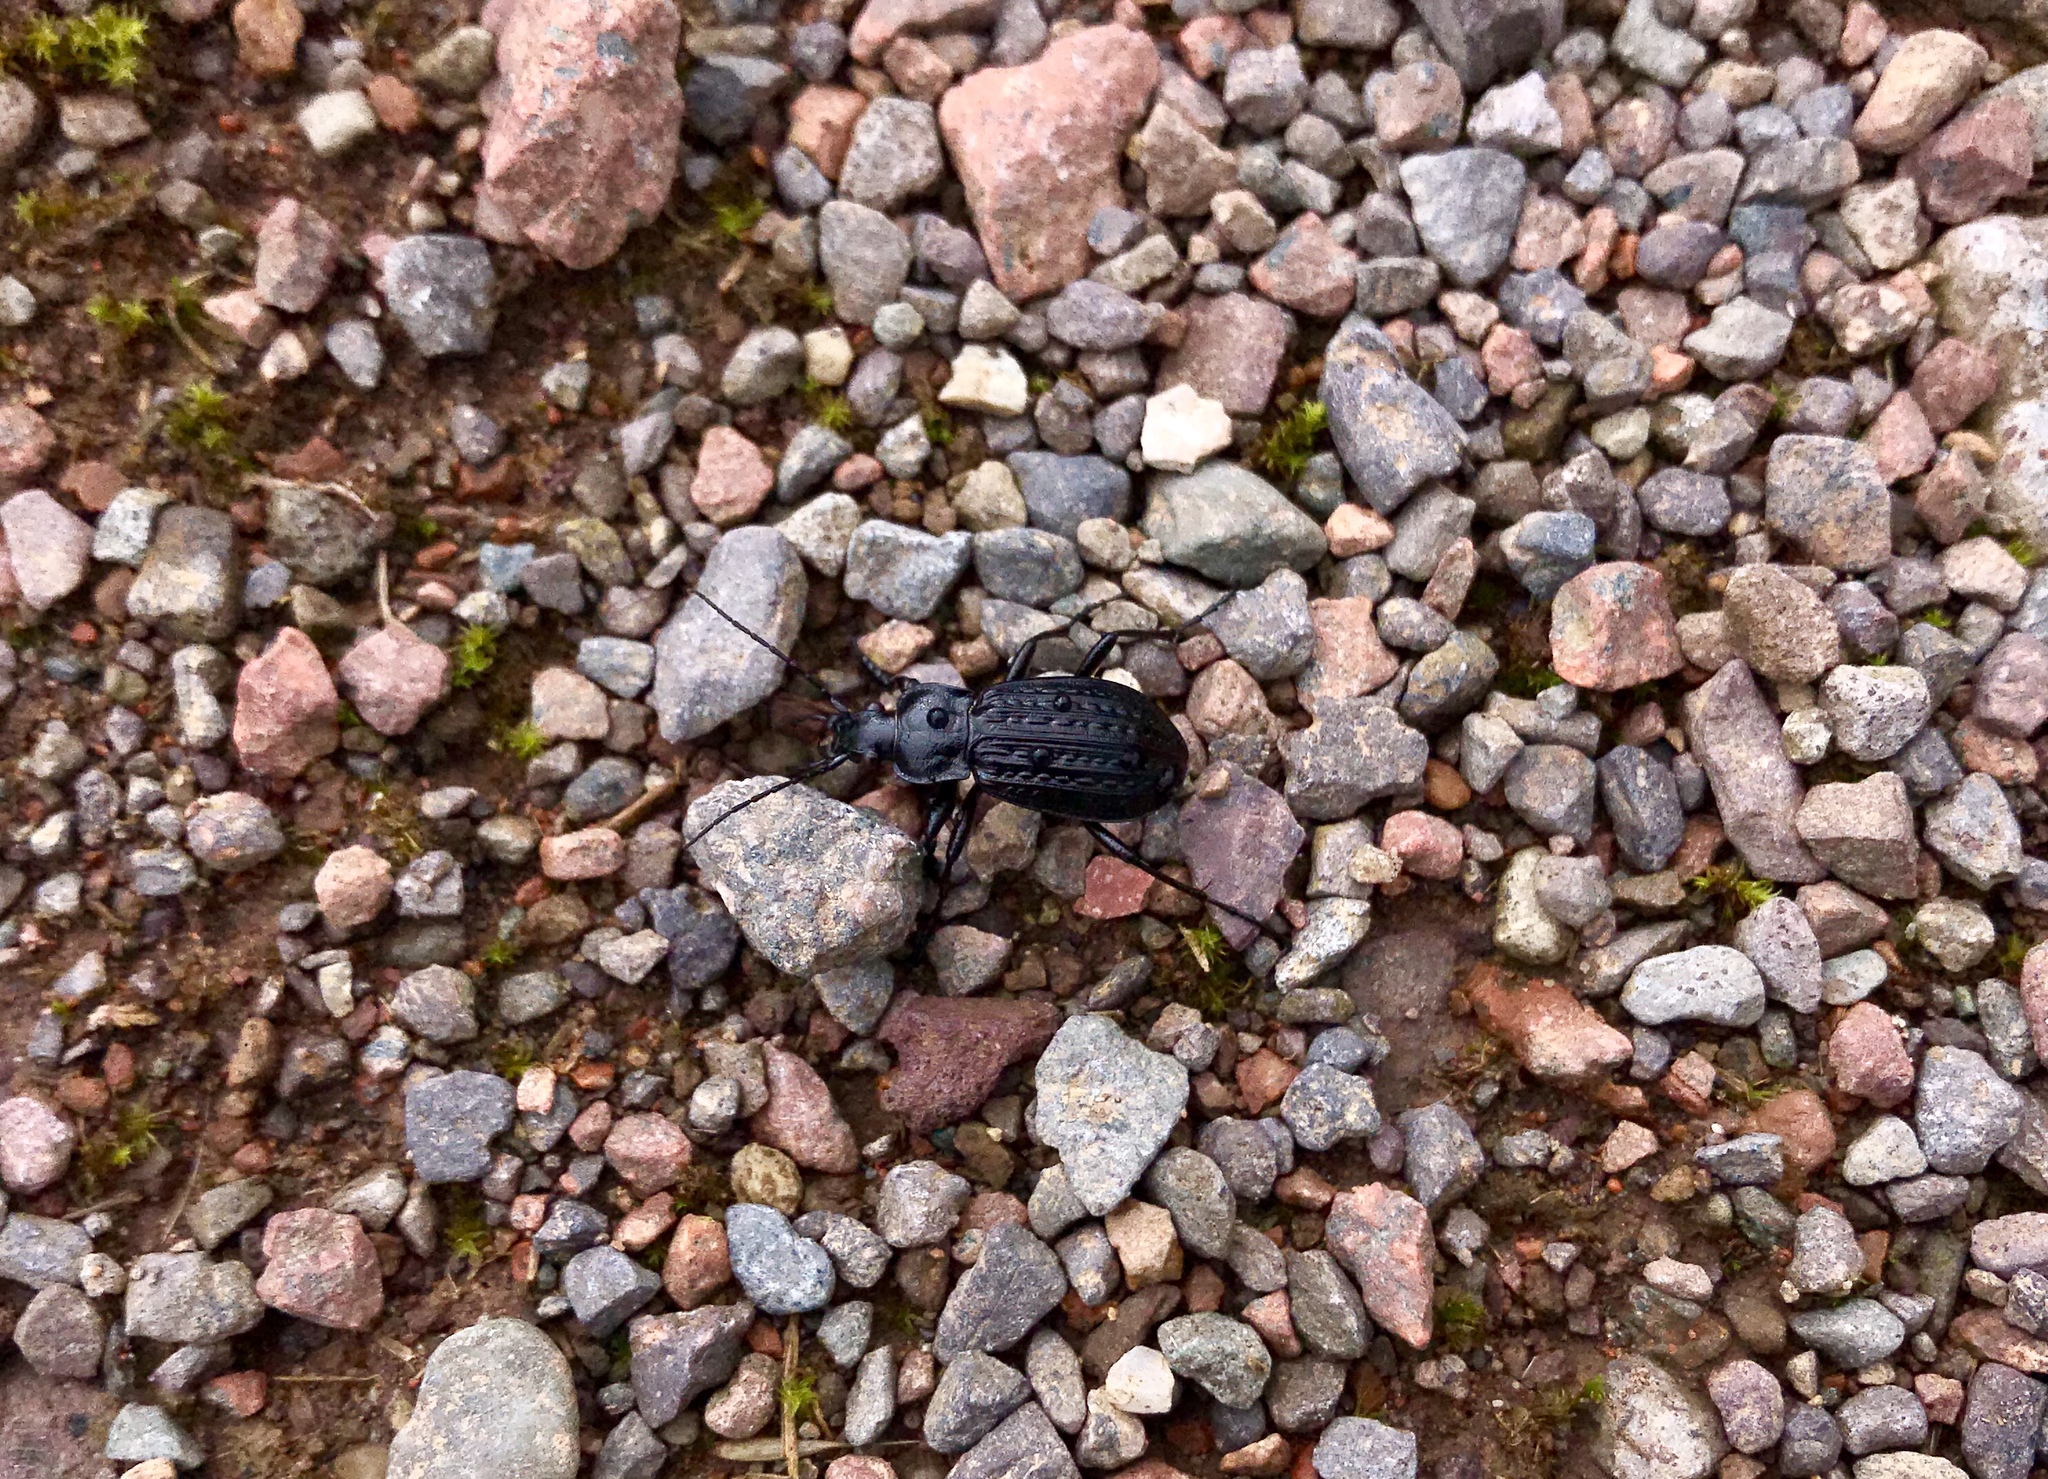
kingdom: Animalia
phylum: Arthropoda
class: Insecta
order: Coleoptera
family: Carabidae
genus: Carabus
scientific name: Carabus granulatus
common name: Granulate ground beetle
